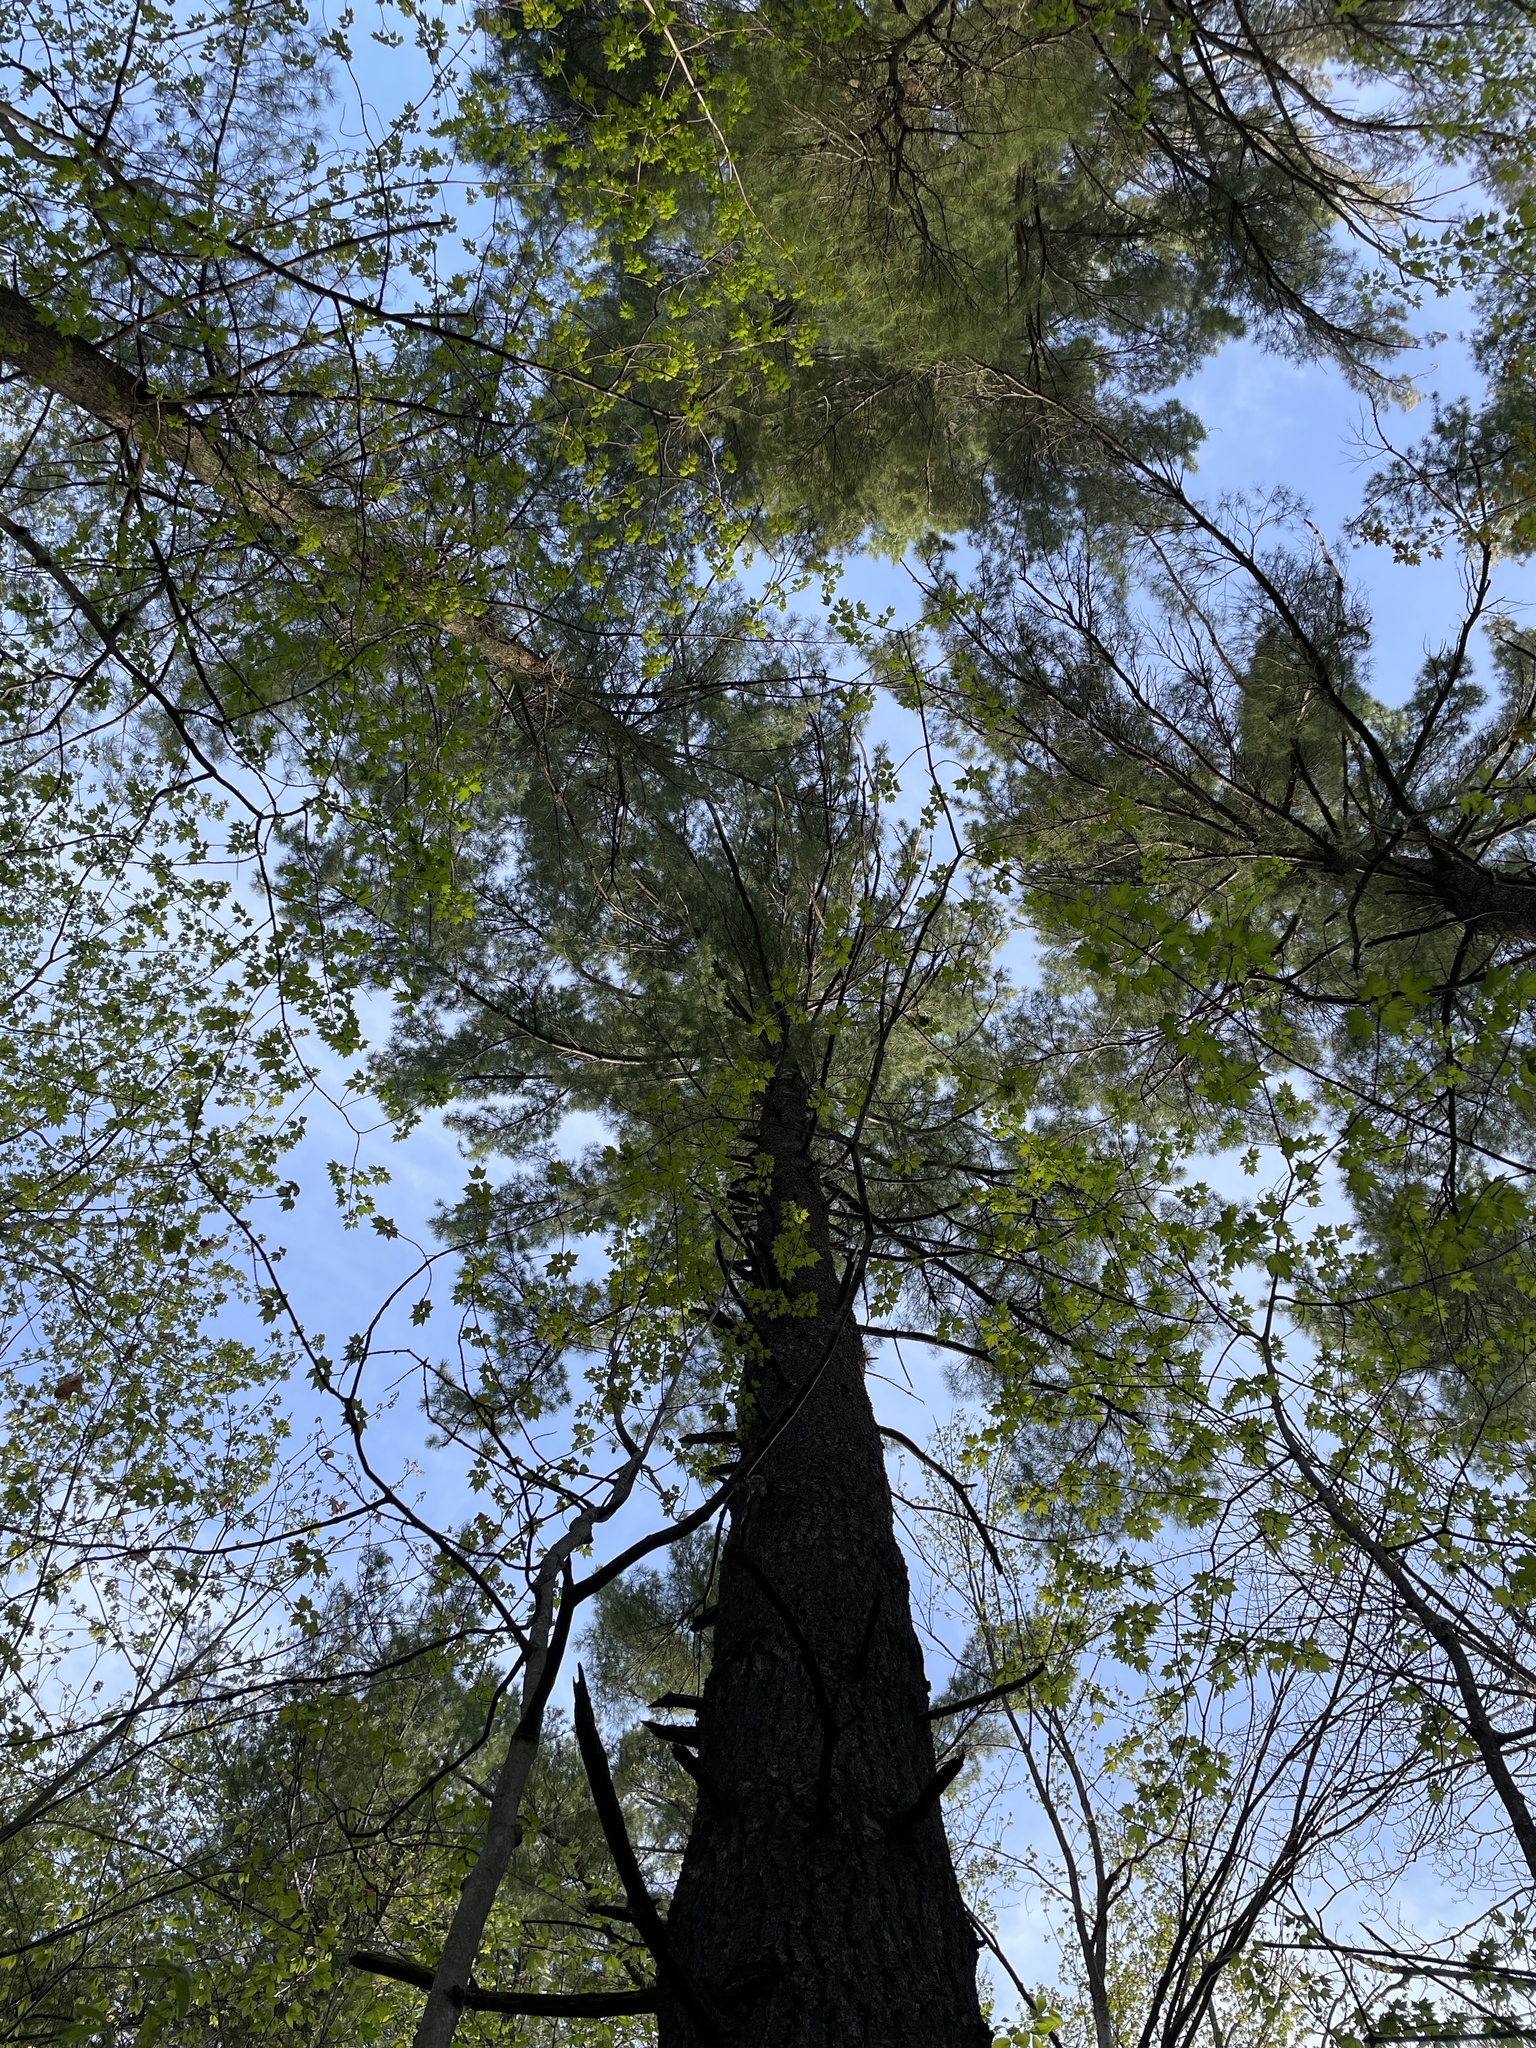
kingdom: Plantae
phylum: Tracheophyta
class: Pinopsida
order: Pinales
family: Pinaceae
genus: Pinus
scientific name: Pinus strobus
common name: Weymouth pine
